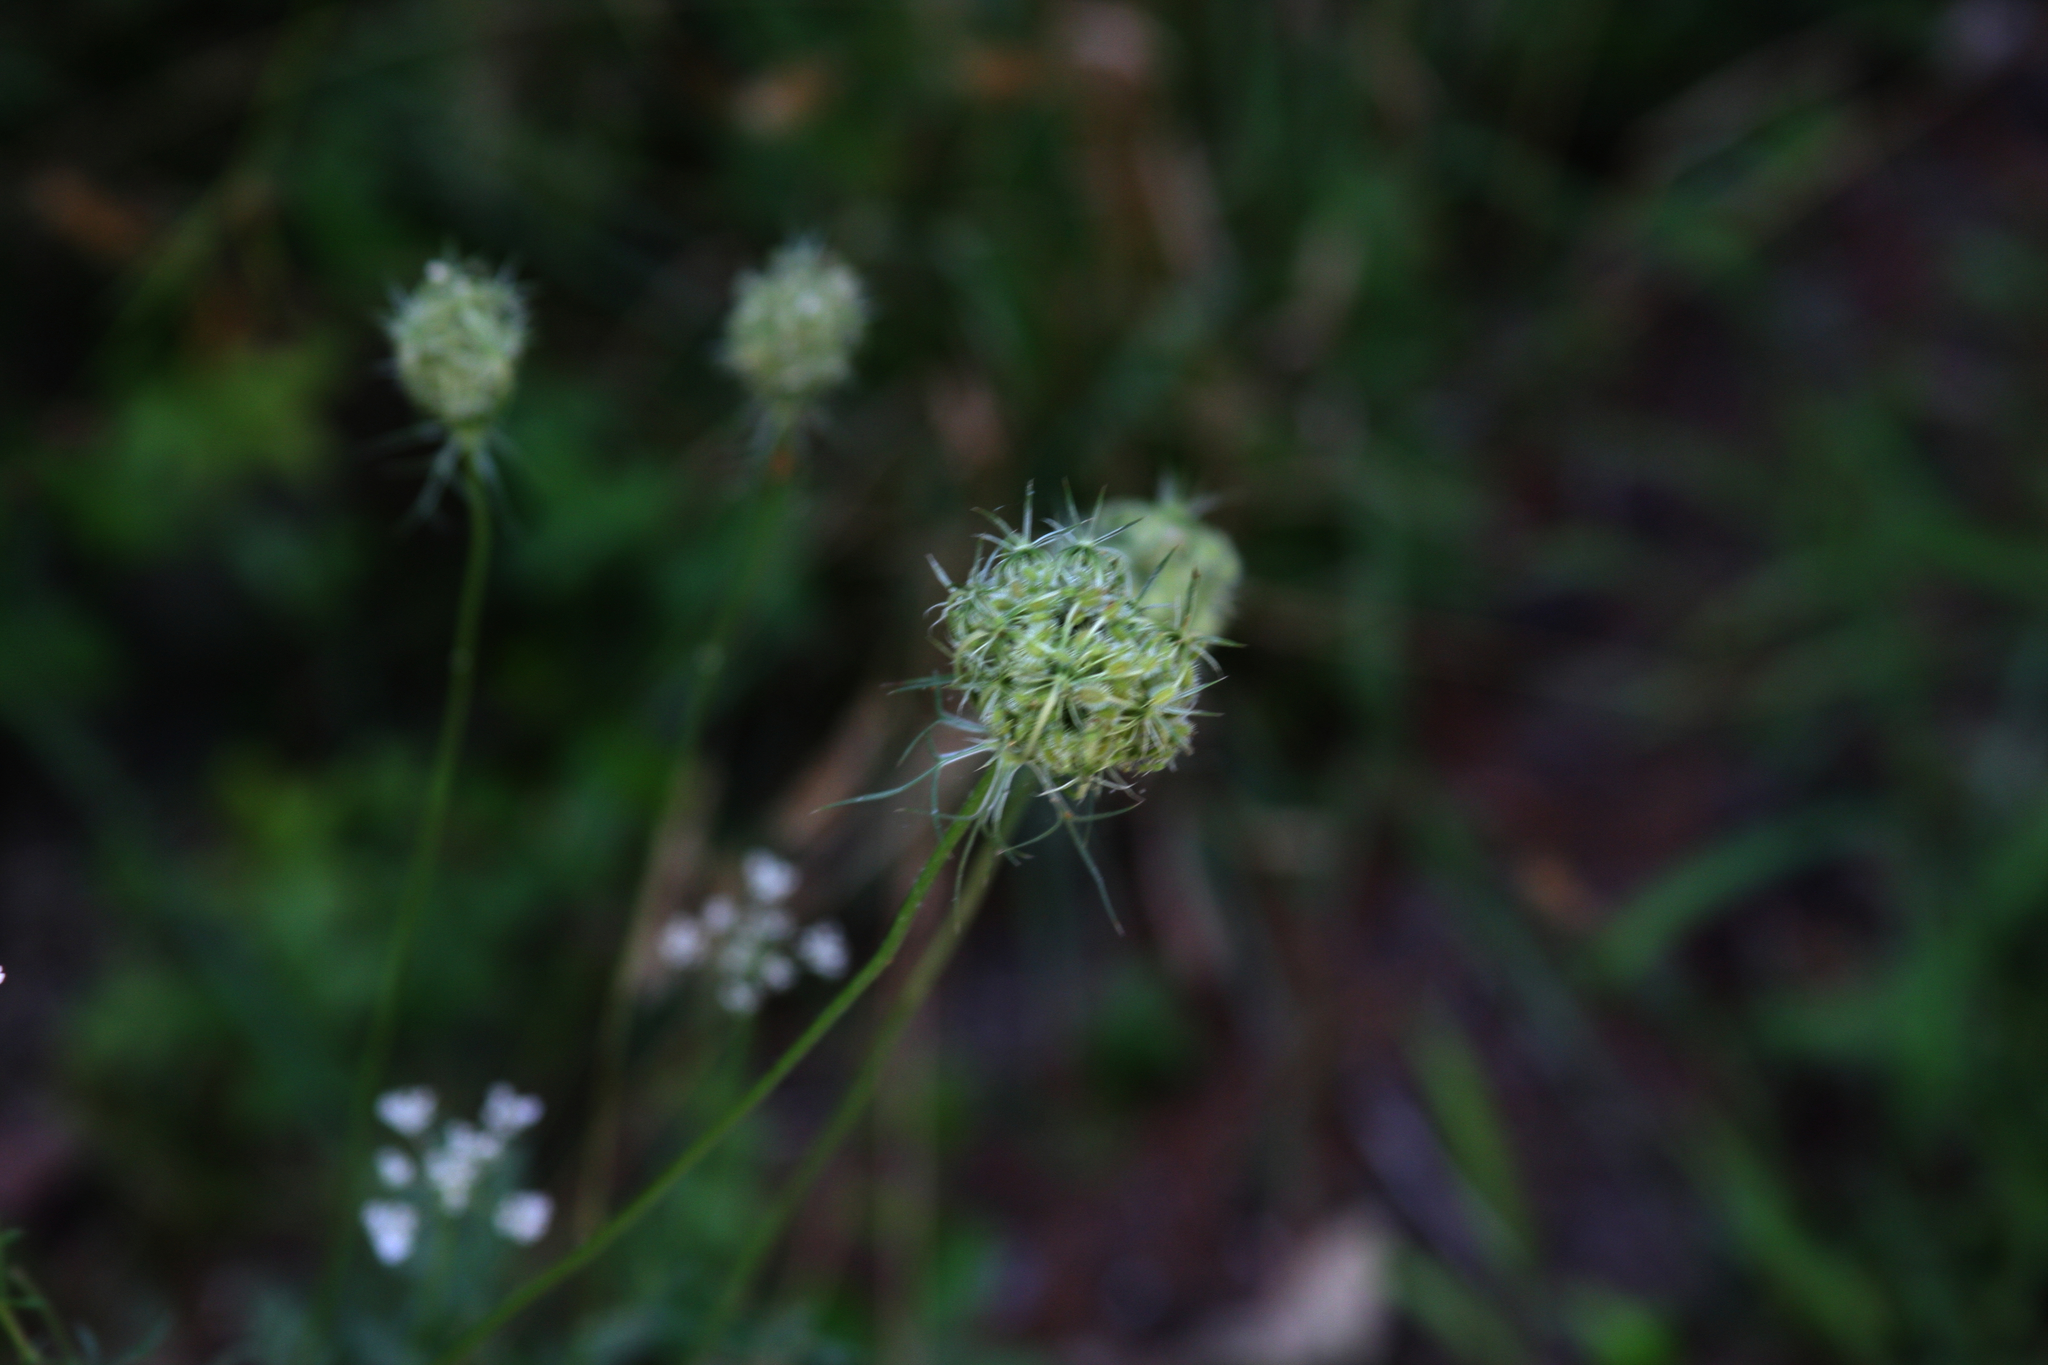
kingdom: Plantae
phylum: Tracheophyta
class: Magnoliopsida
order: Apiales
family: Apiaceae
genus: Daucus
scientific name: Daucus carota
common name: Wild carrot
